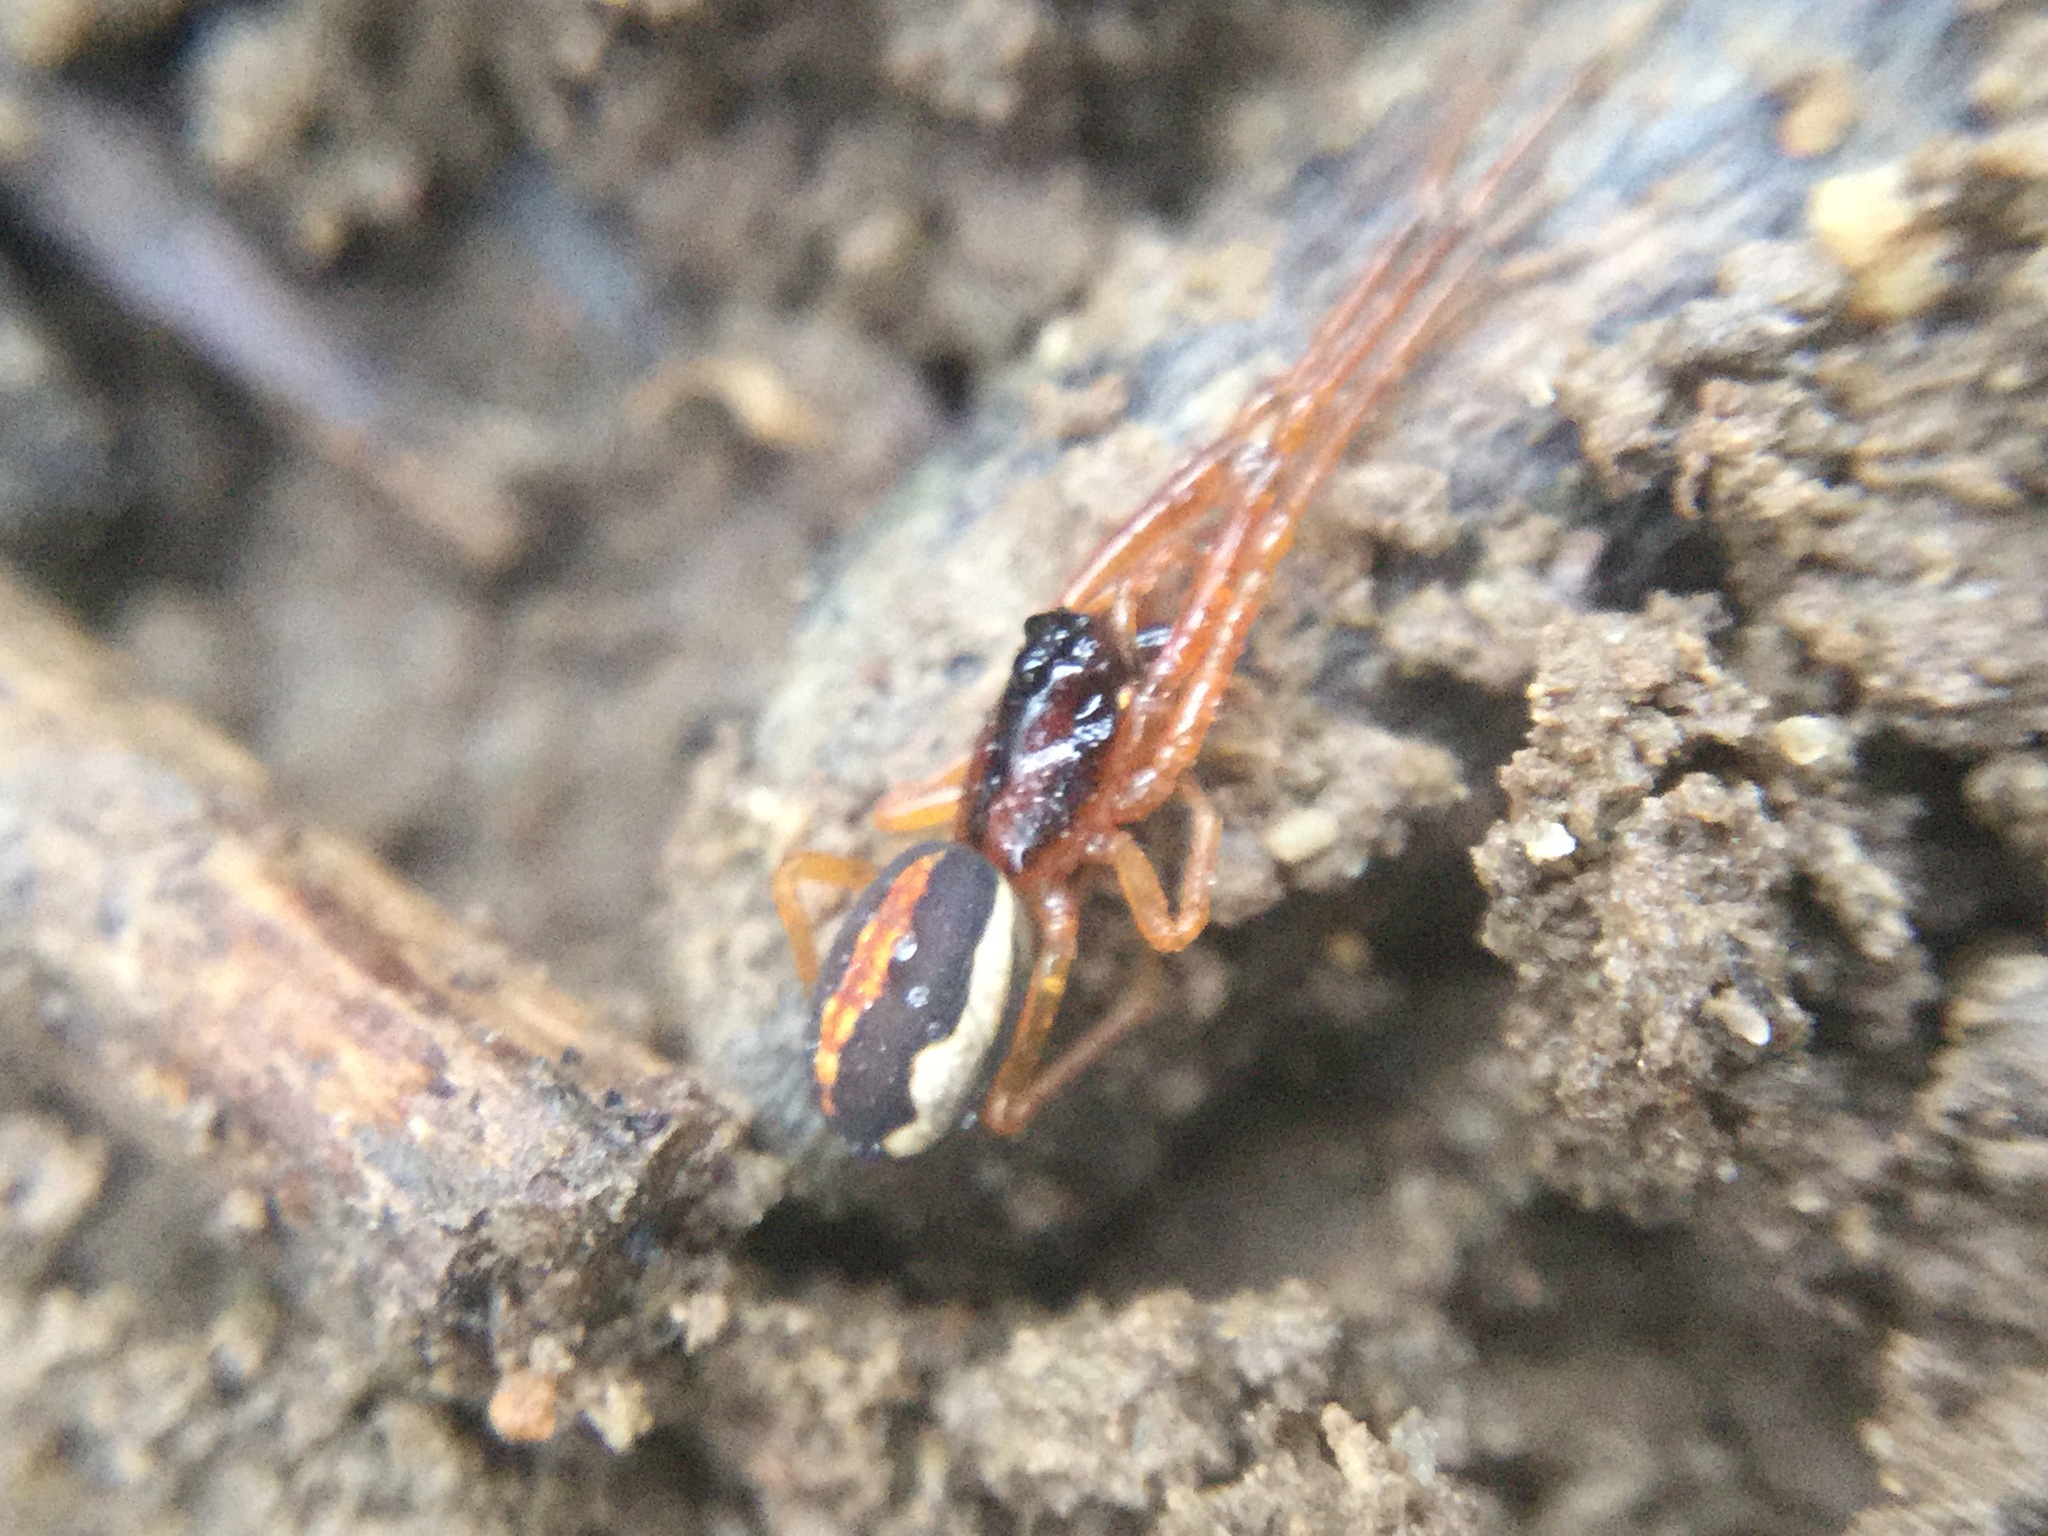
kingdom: Animalia
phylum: Arthropoda
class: Arachnida
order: Araneae
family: Tetragnathidae
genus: Pachygnatha
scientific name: Pachygnatha autumnalis
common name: Big-eyed thick-jawed spider
